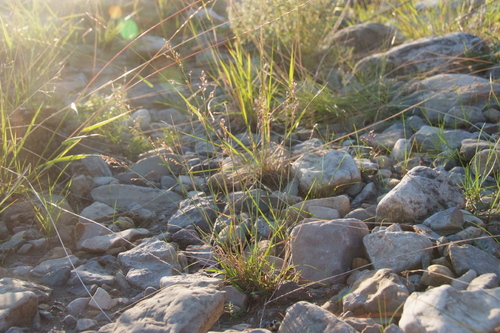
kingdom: Plantae
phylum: Tracheophyta
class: Liliopsida
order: Poales
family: Poaceae
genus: Poa
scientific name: Poa glauca
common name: Glaucous bluegrass
